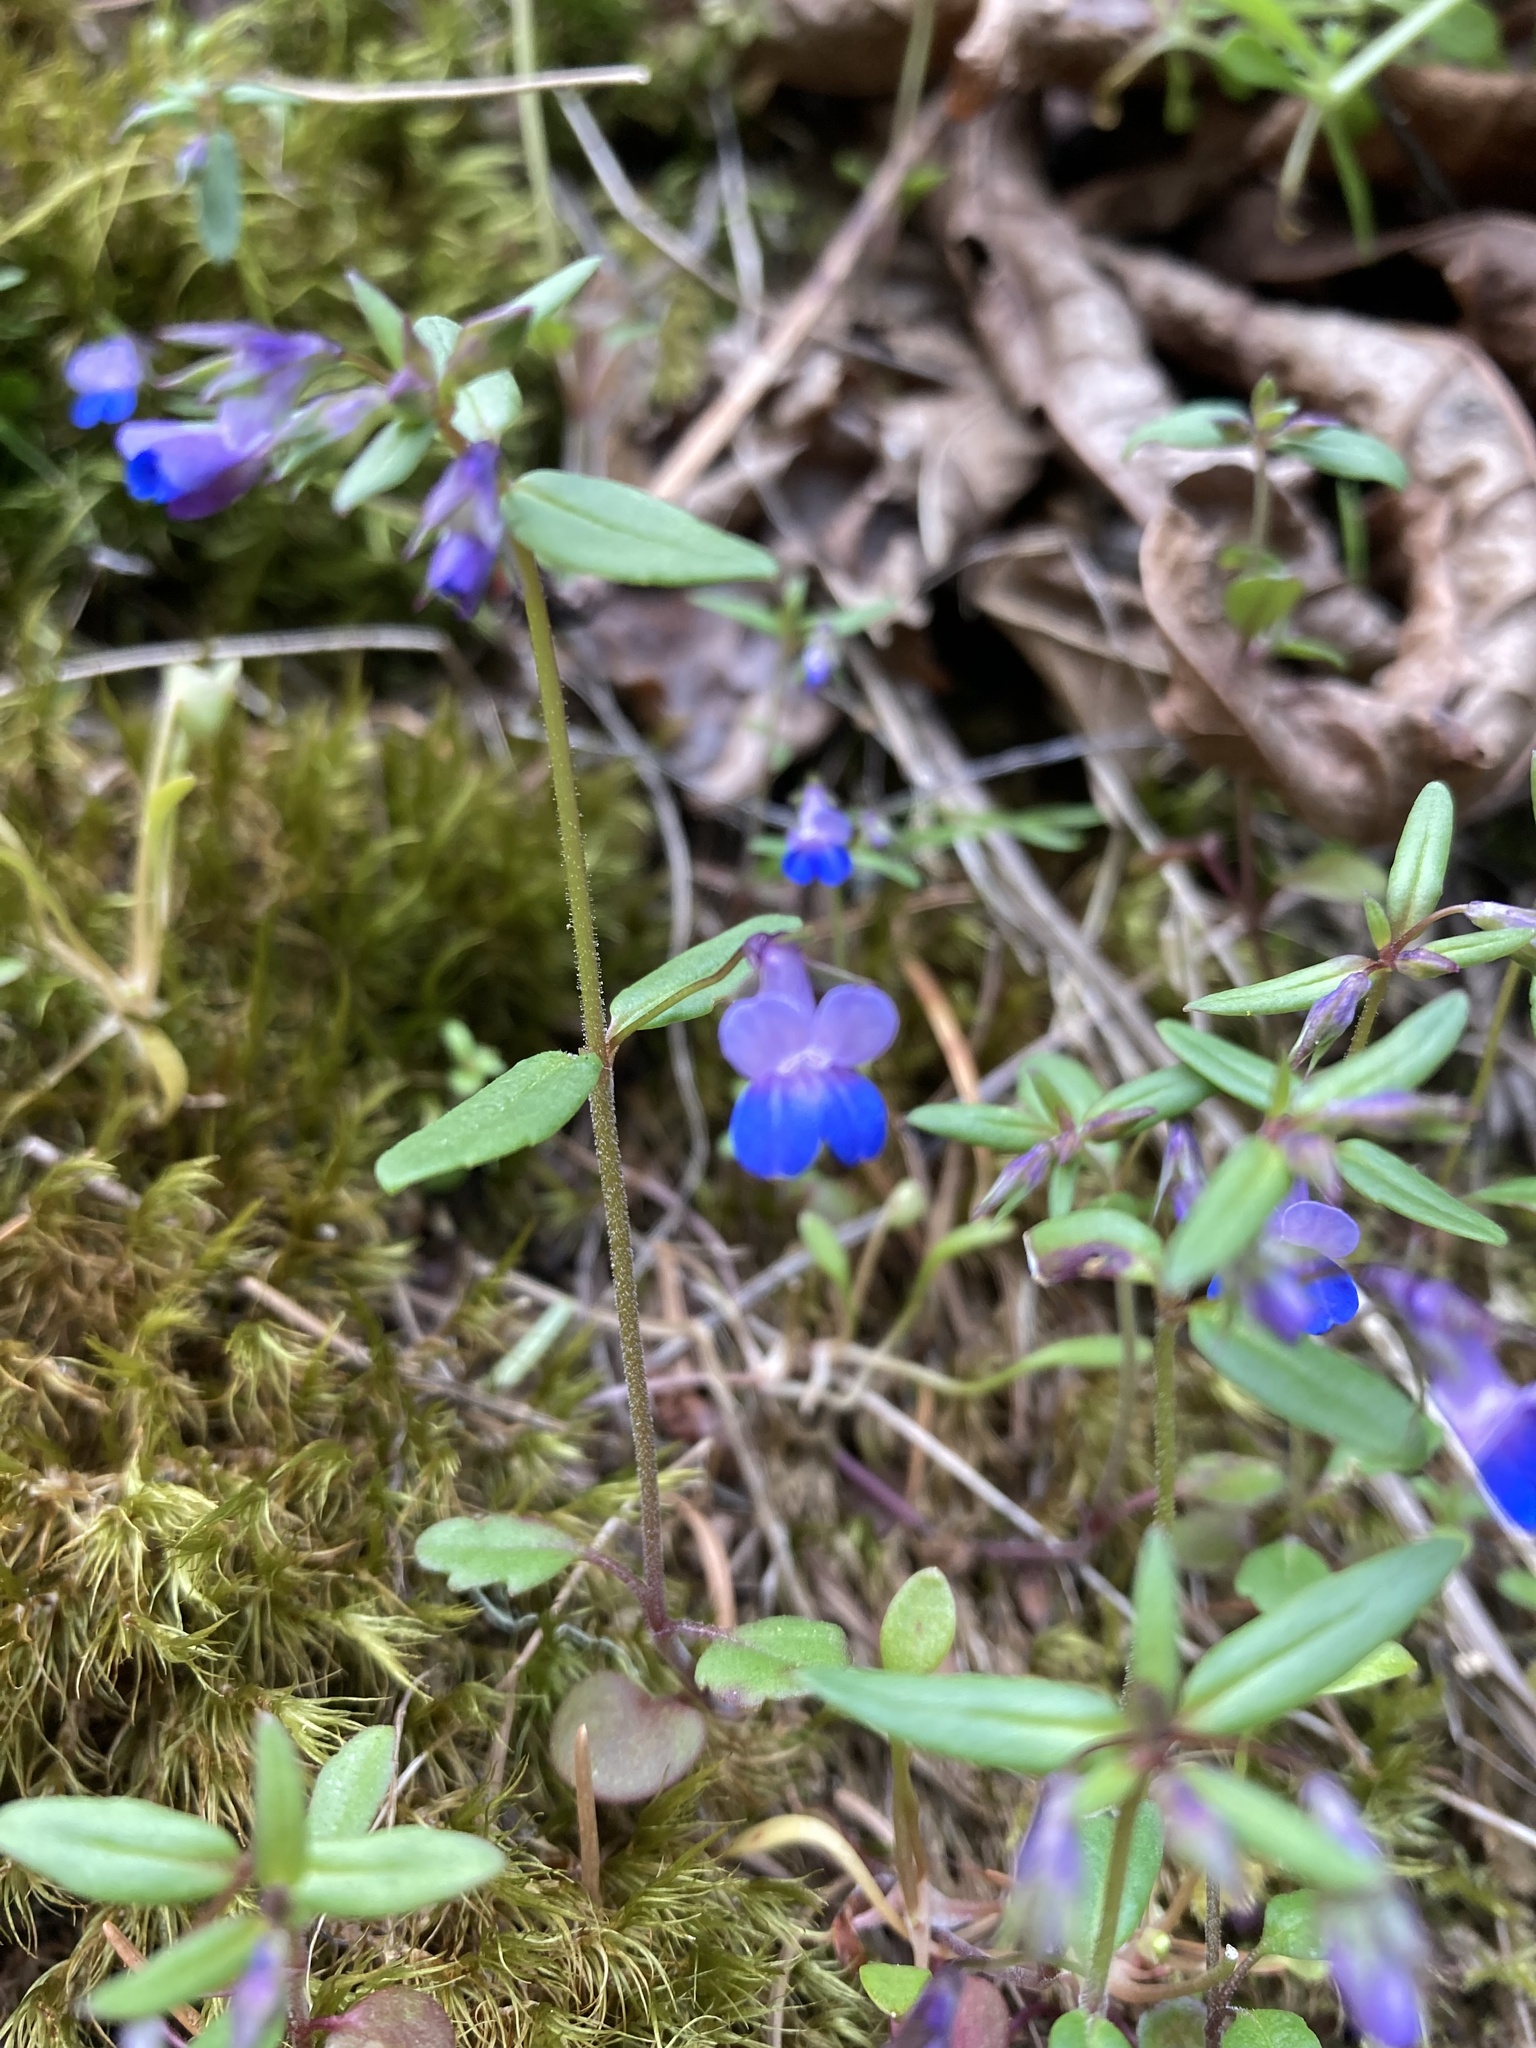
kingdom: Plantae
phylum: Tracheophyta
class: Magnoliopsida
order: Lamiales
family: Plantaginaceae
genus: Collinsia
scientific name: Collinsia parviflora
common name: Blue-lips
